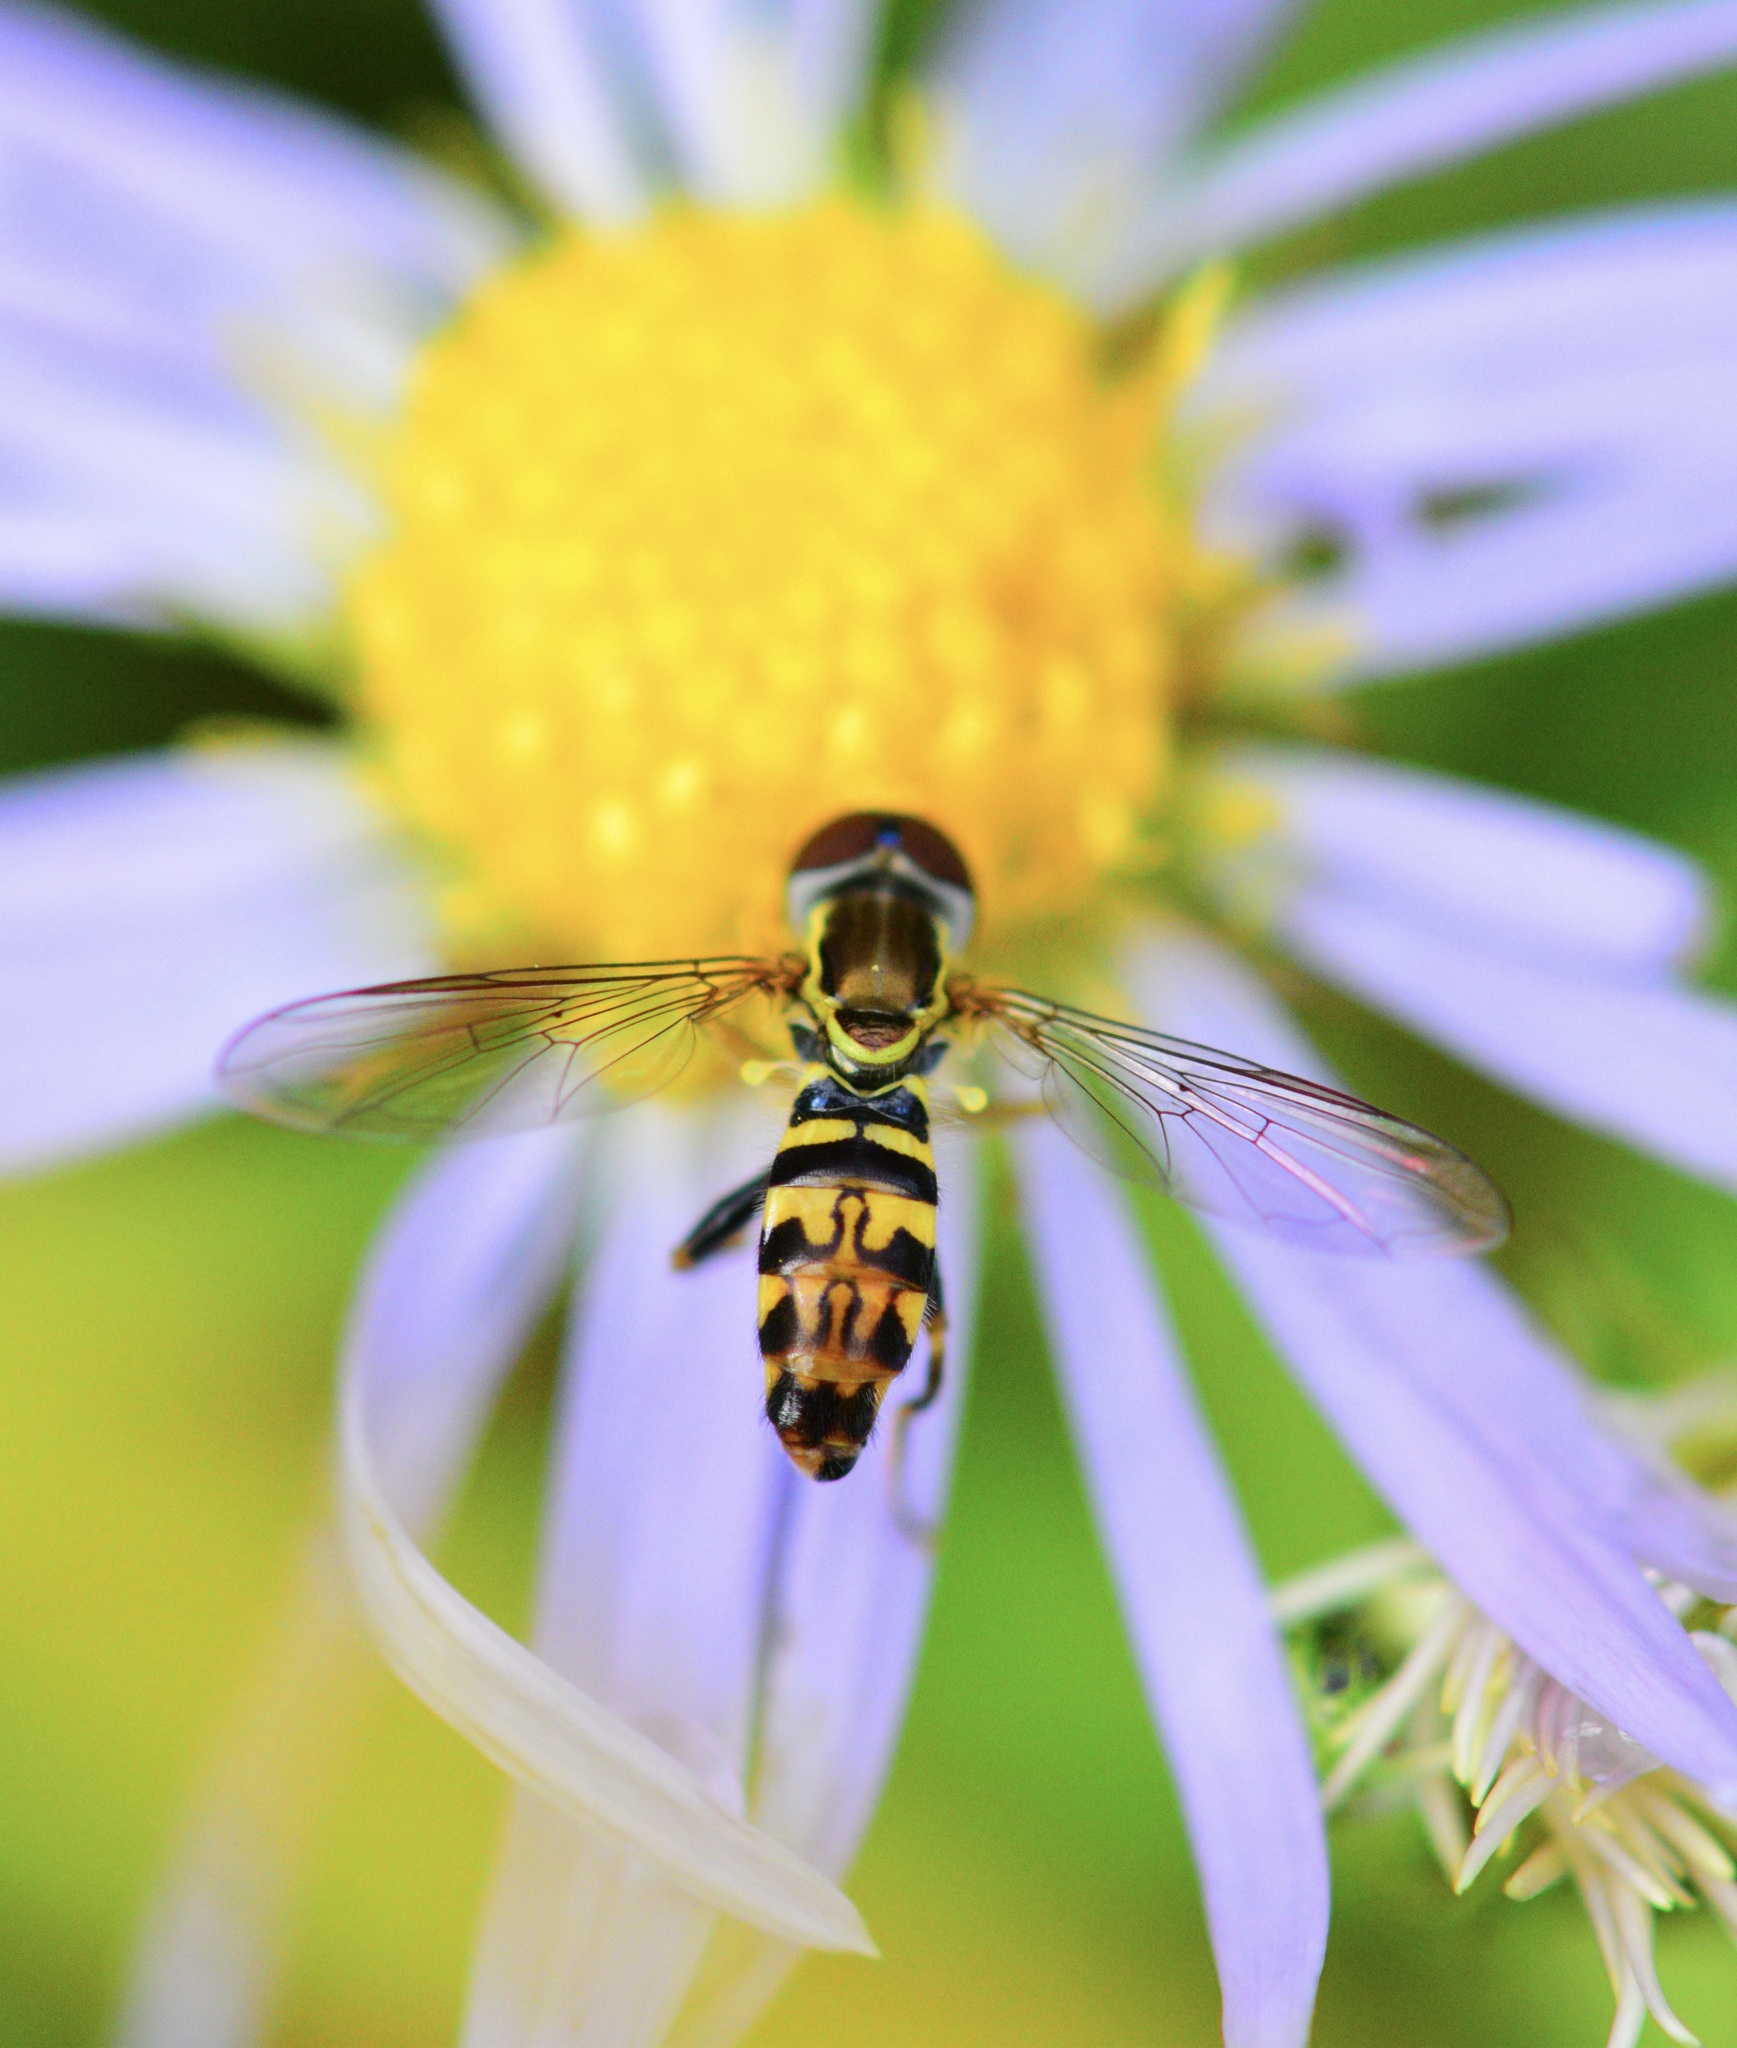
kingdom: Animalia
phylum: Arthropoda
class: Insecta
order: Diptera
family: Syrphidae
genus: Toxomerus
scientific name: Toxomerus geminatus
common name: Eastern calligrapher
